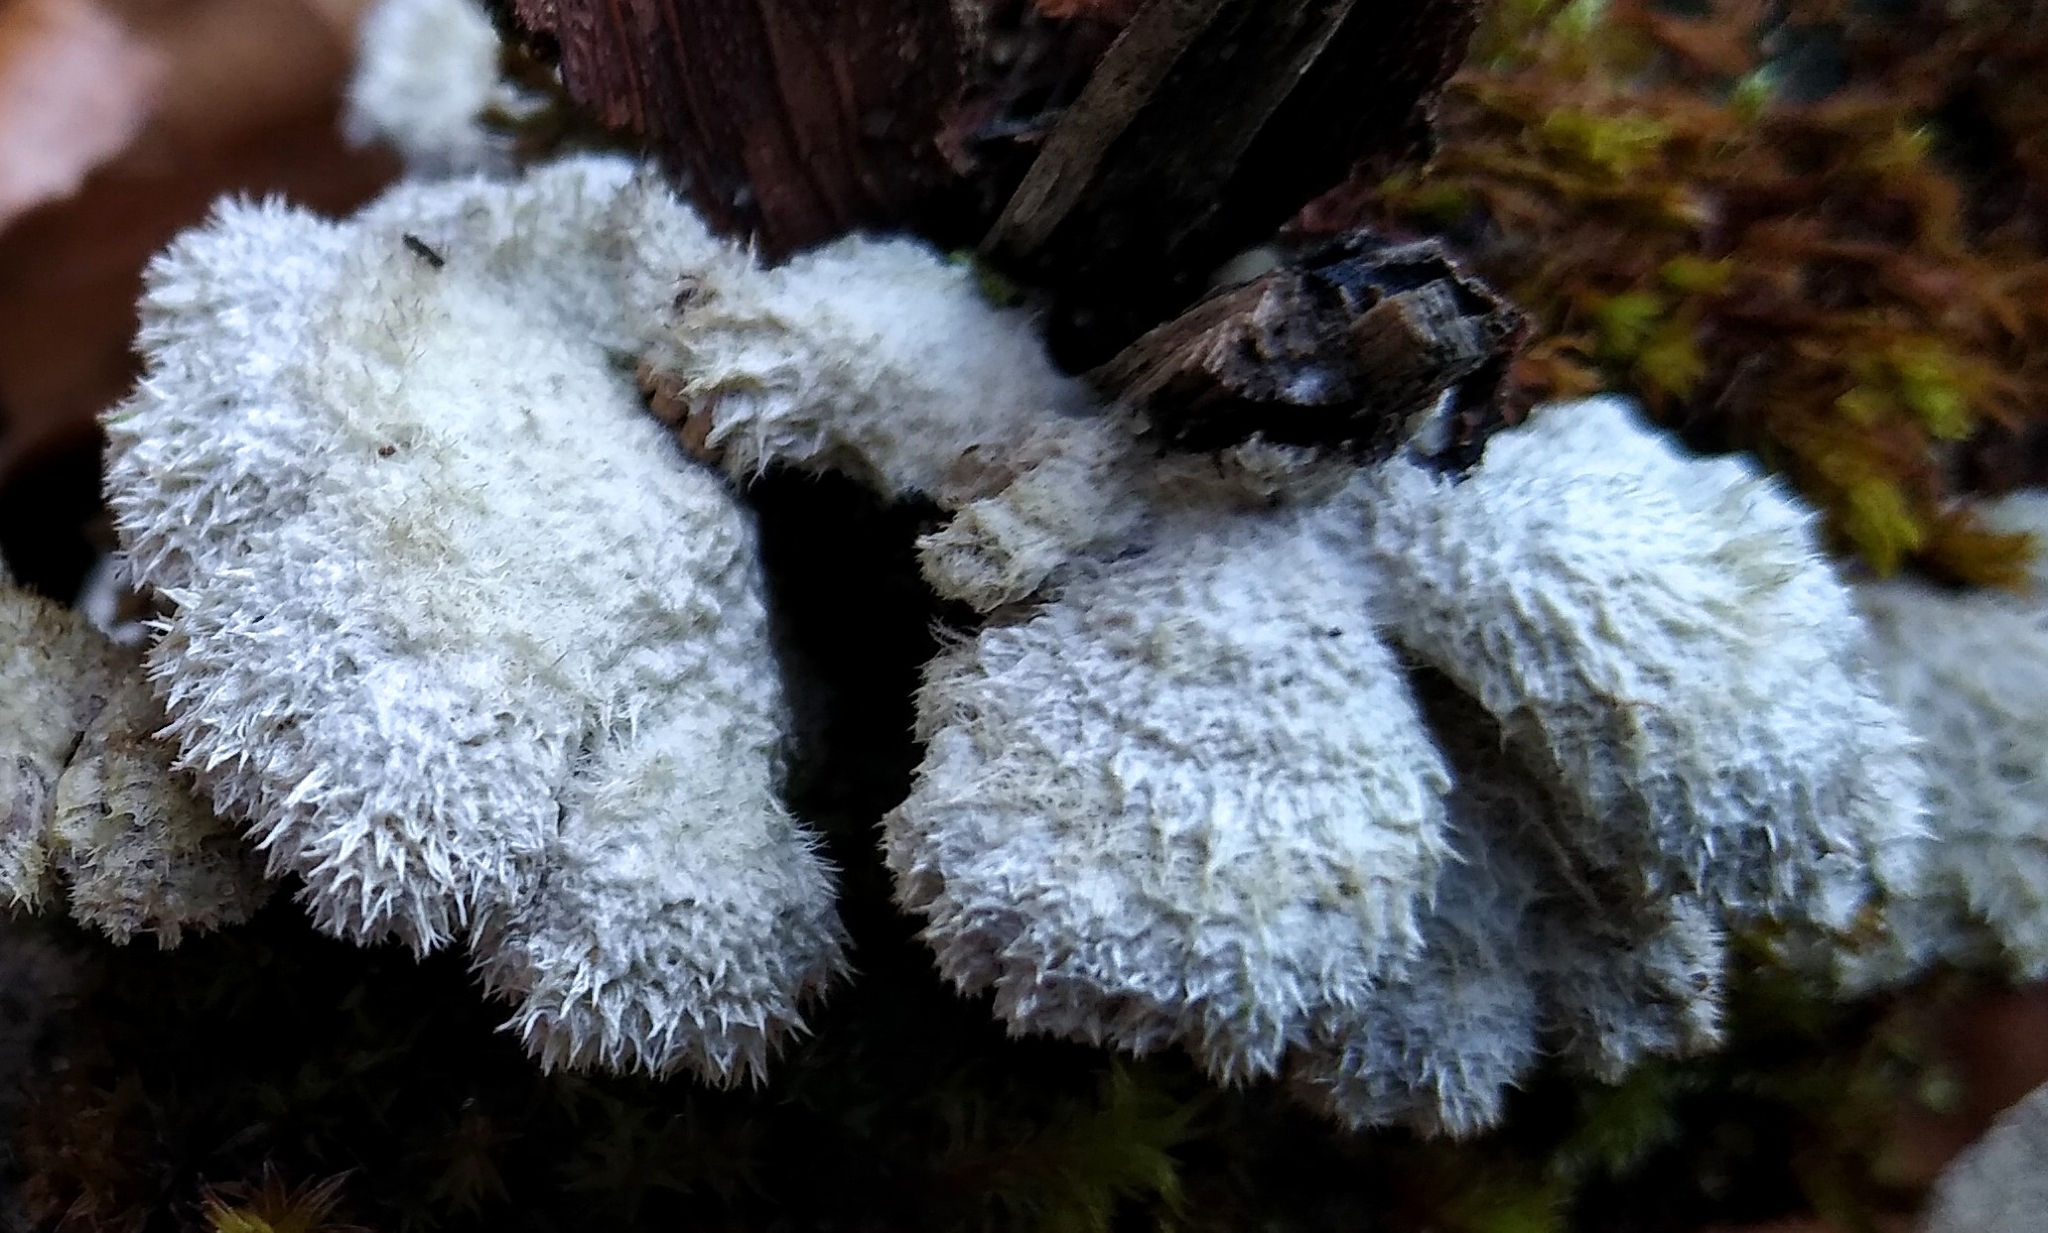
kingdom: Fungi
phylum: Basidiomycota
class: Agaricomycetes
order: Agaricales
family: Schizophyllaceae
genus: Schizophyllum
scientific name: Schizophyllum commune
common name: Common porecrust
